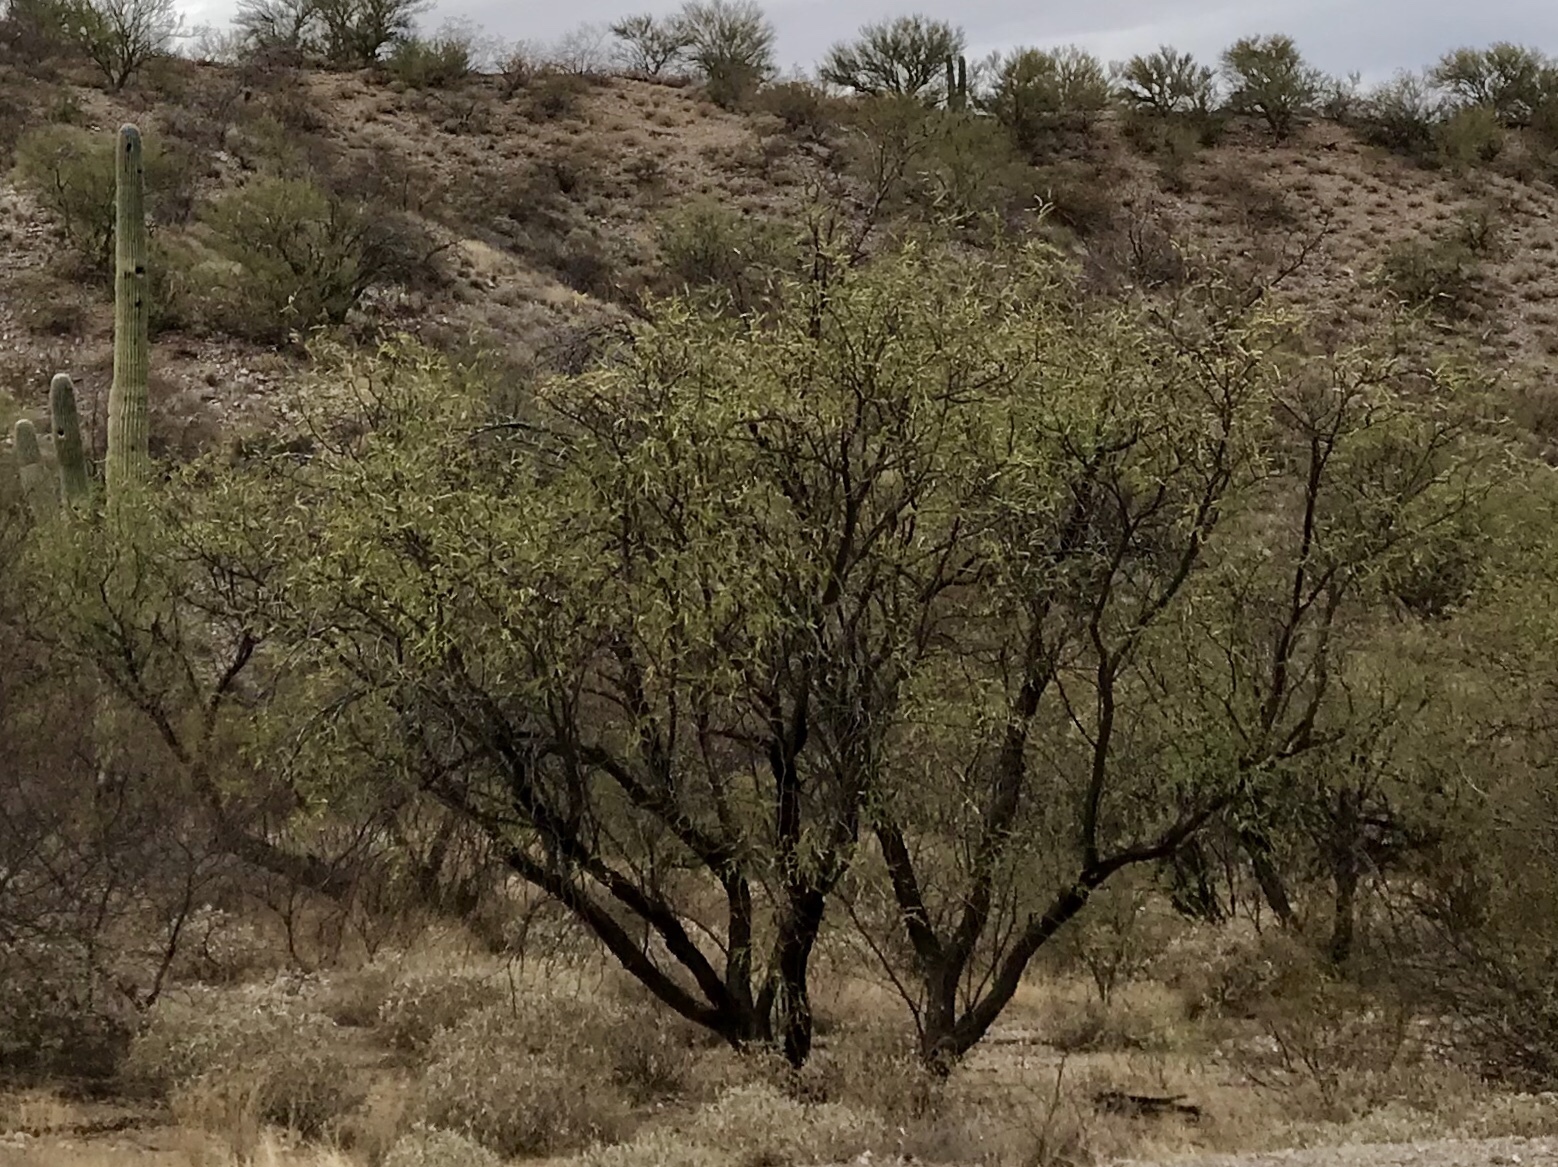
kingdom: Plantae
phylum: Tracheophyta
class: Magnoliopsida
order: Fabales
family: Fabaceae
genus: Prosopis
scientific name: Prosopis velutina
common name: Velvet mesquite
